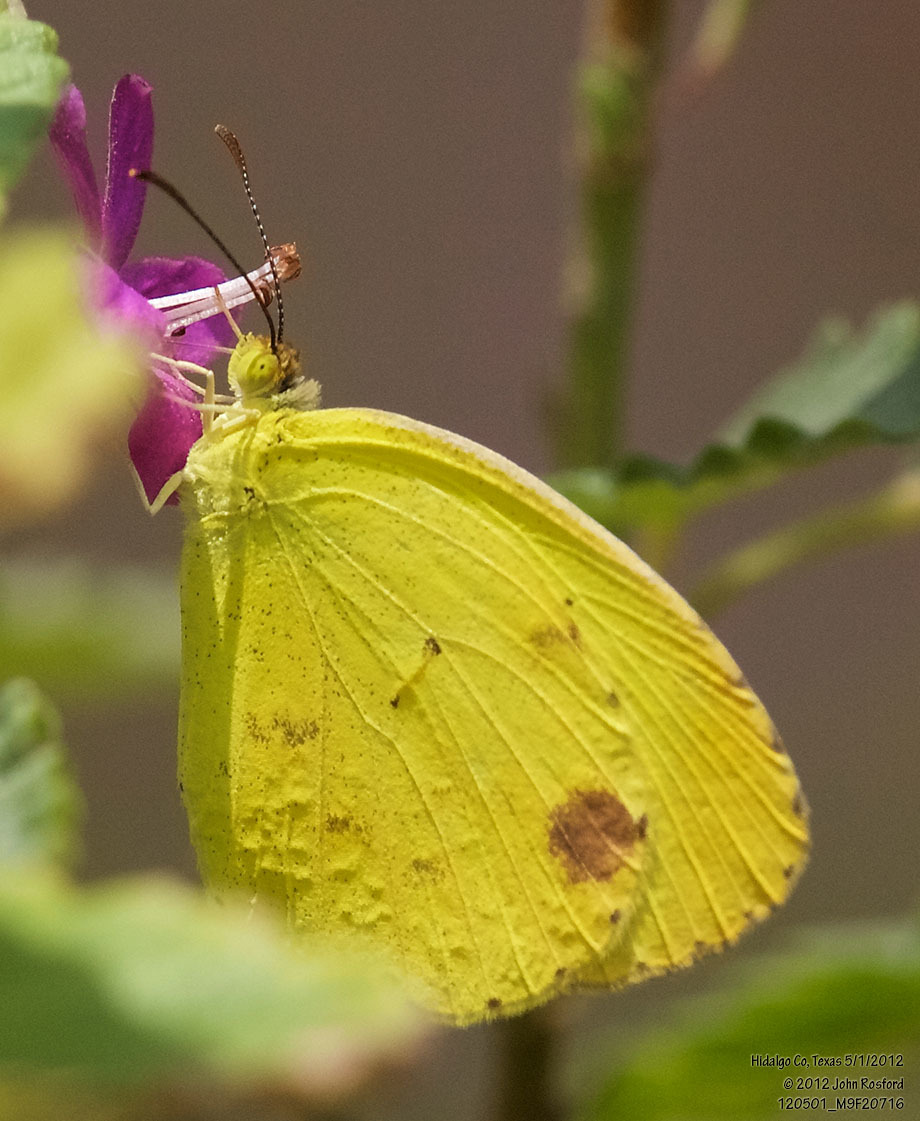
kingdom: Animalia
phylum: Arthropoda
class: Insecta
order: Lepidoptera
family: Pieridae
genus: Pyrisitia
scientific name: Pyrisitia nise
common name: Mimosa yellow
